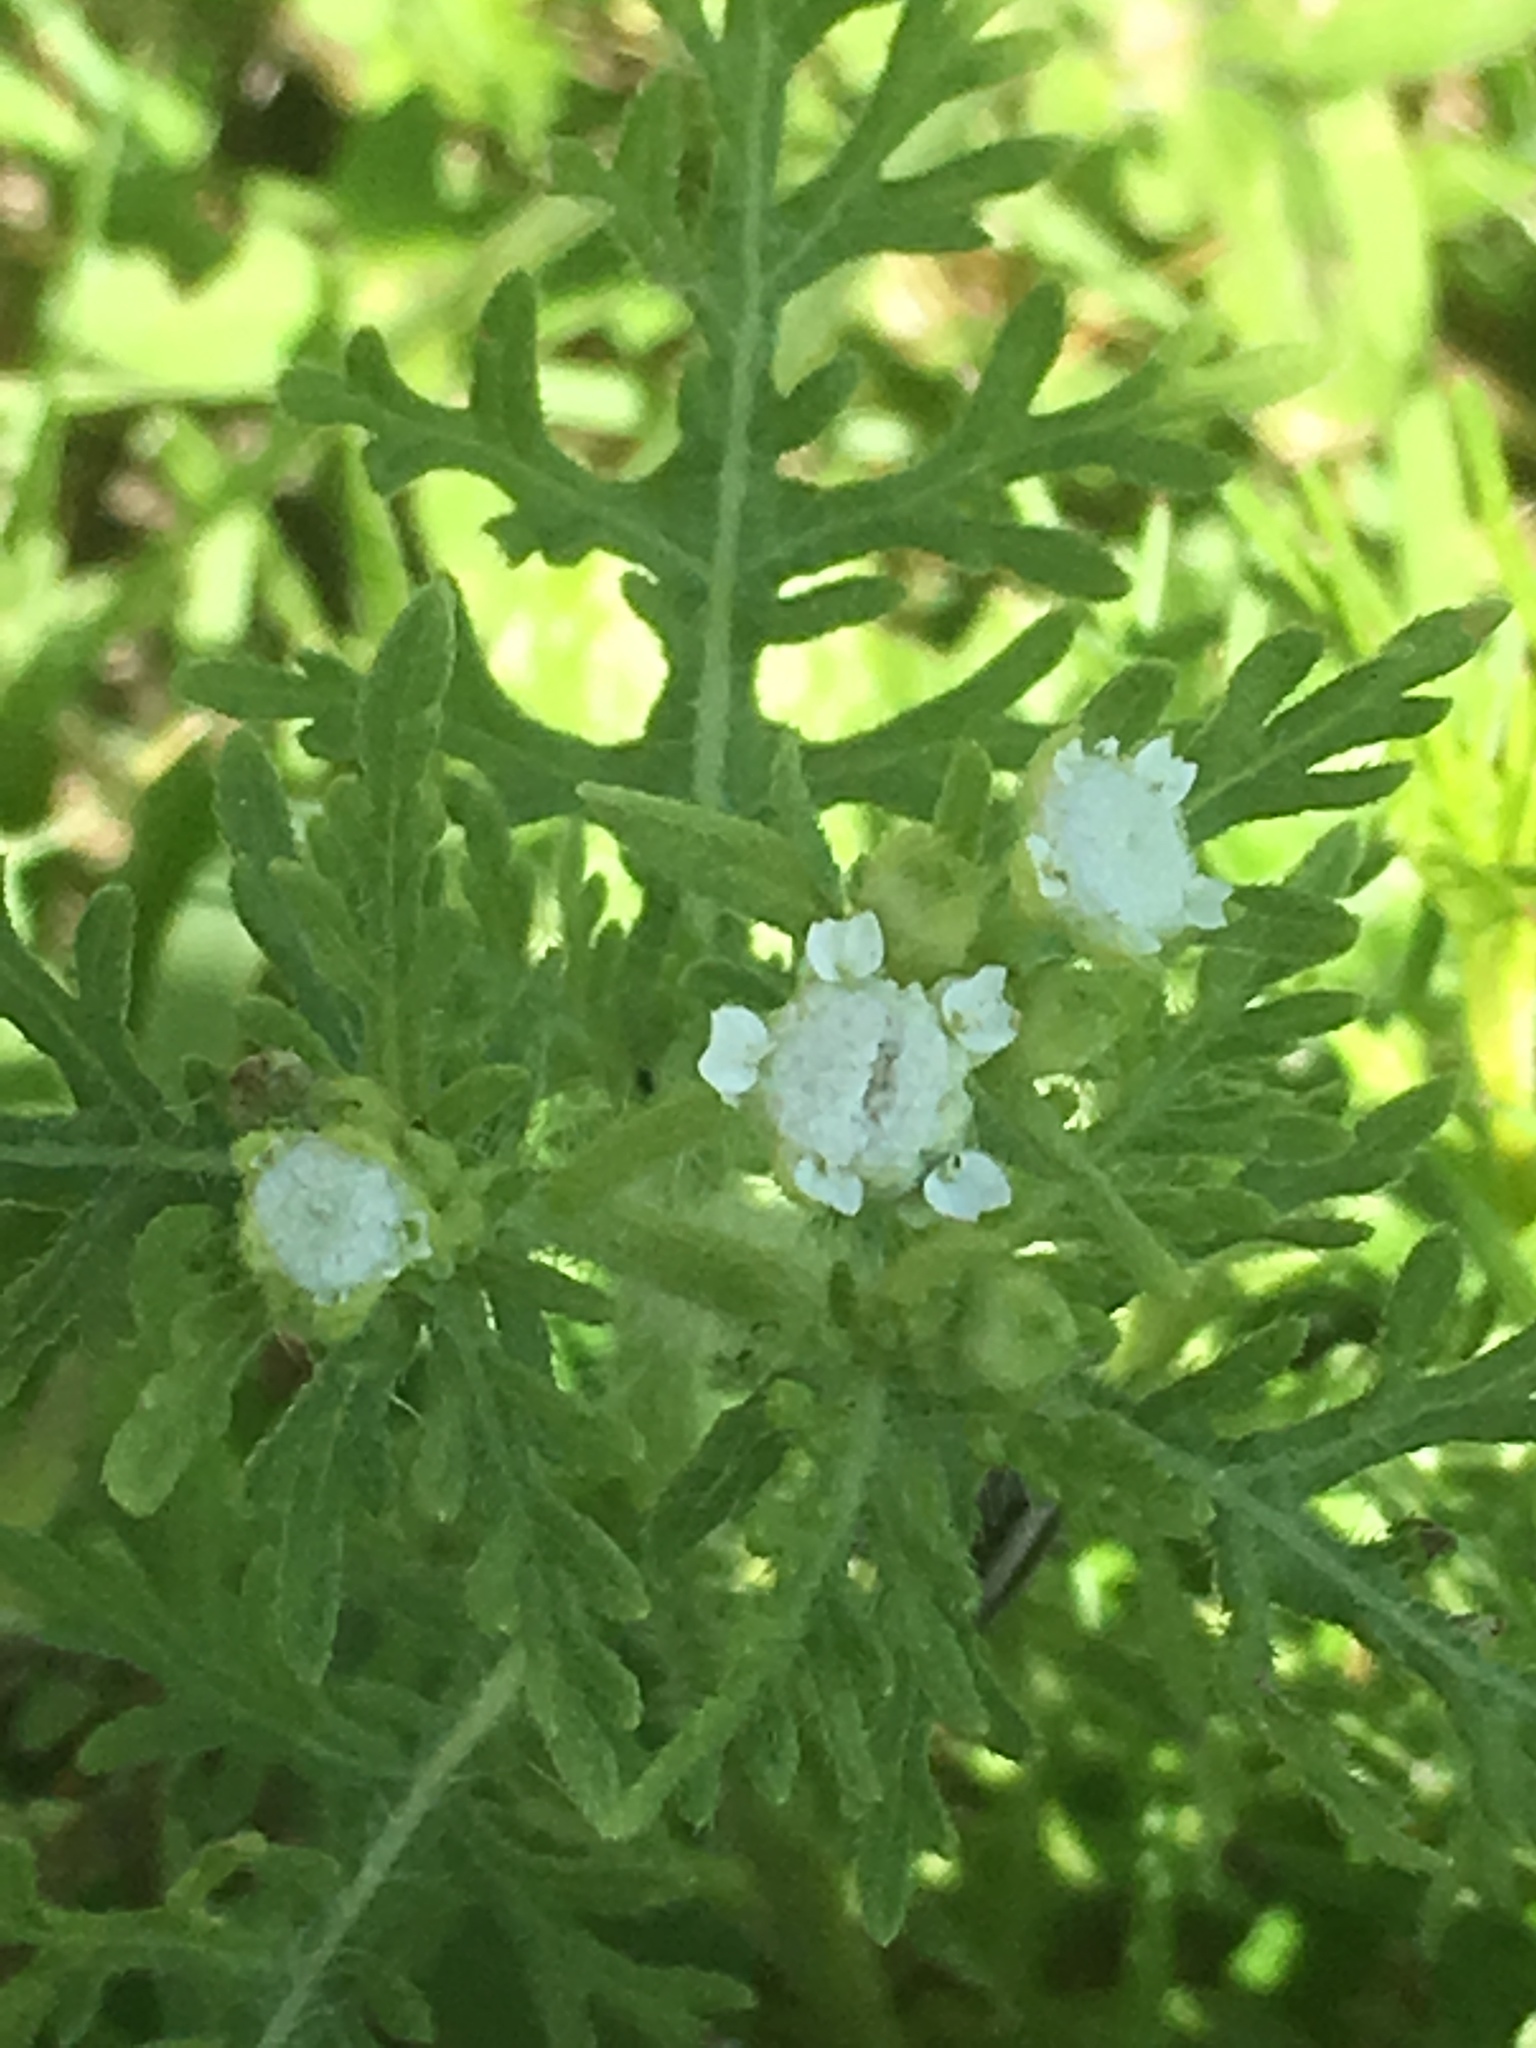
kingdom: Plantae
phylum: Tracheophyta
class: Magnoliopsida
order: Asterales
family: Asteraceae
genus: Parthenium
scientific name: Parthenium hysterophorus
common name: Santa maria feverfew
